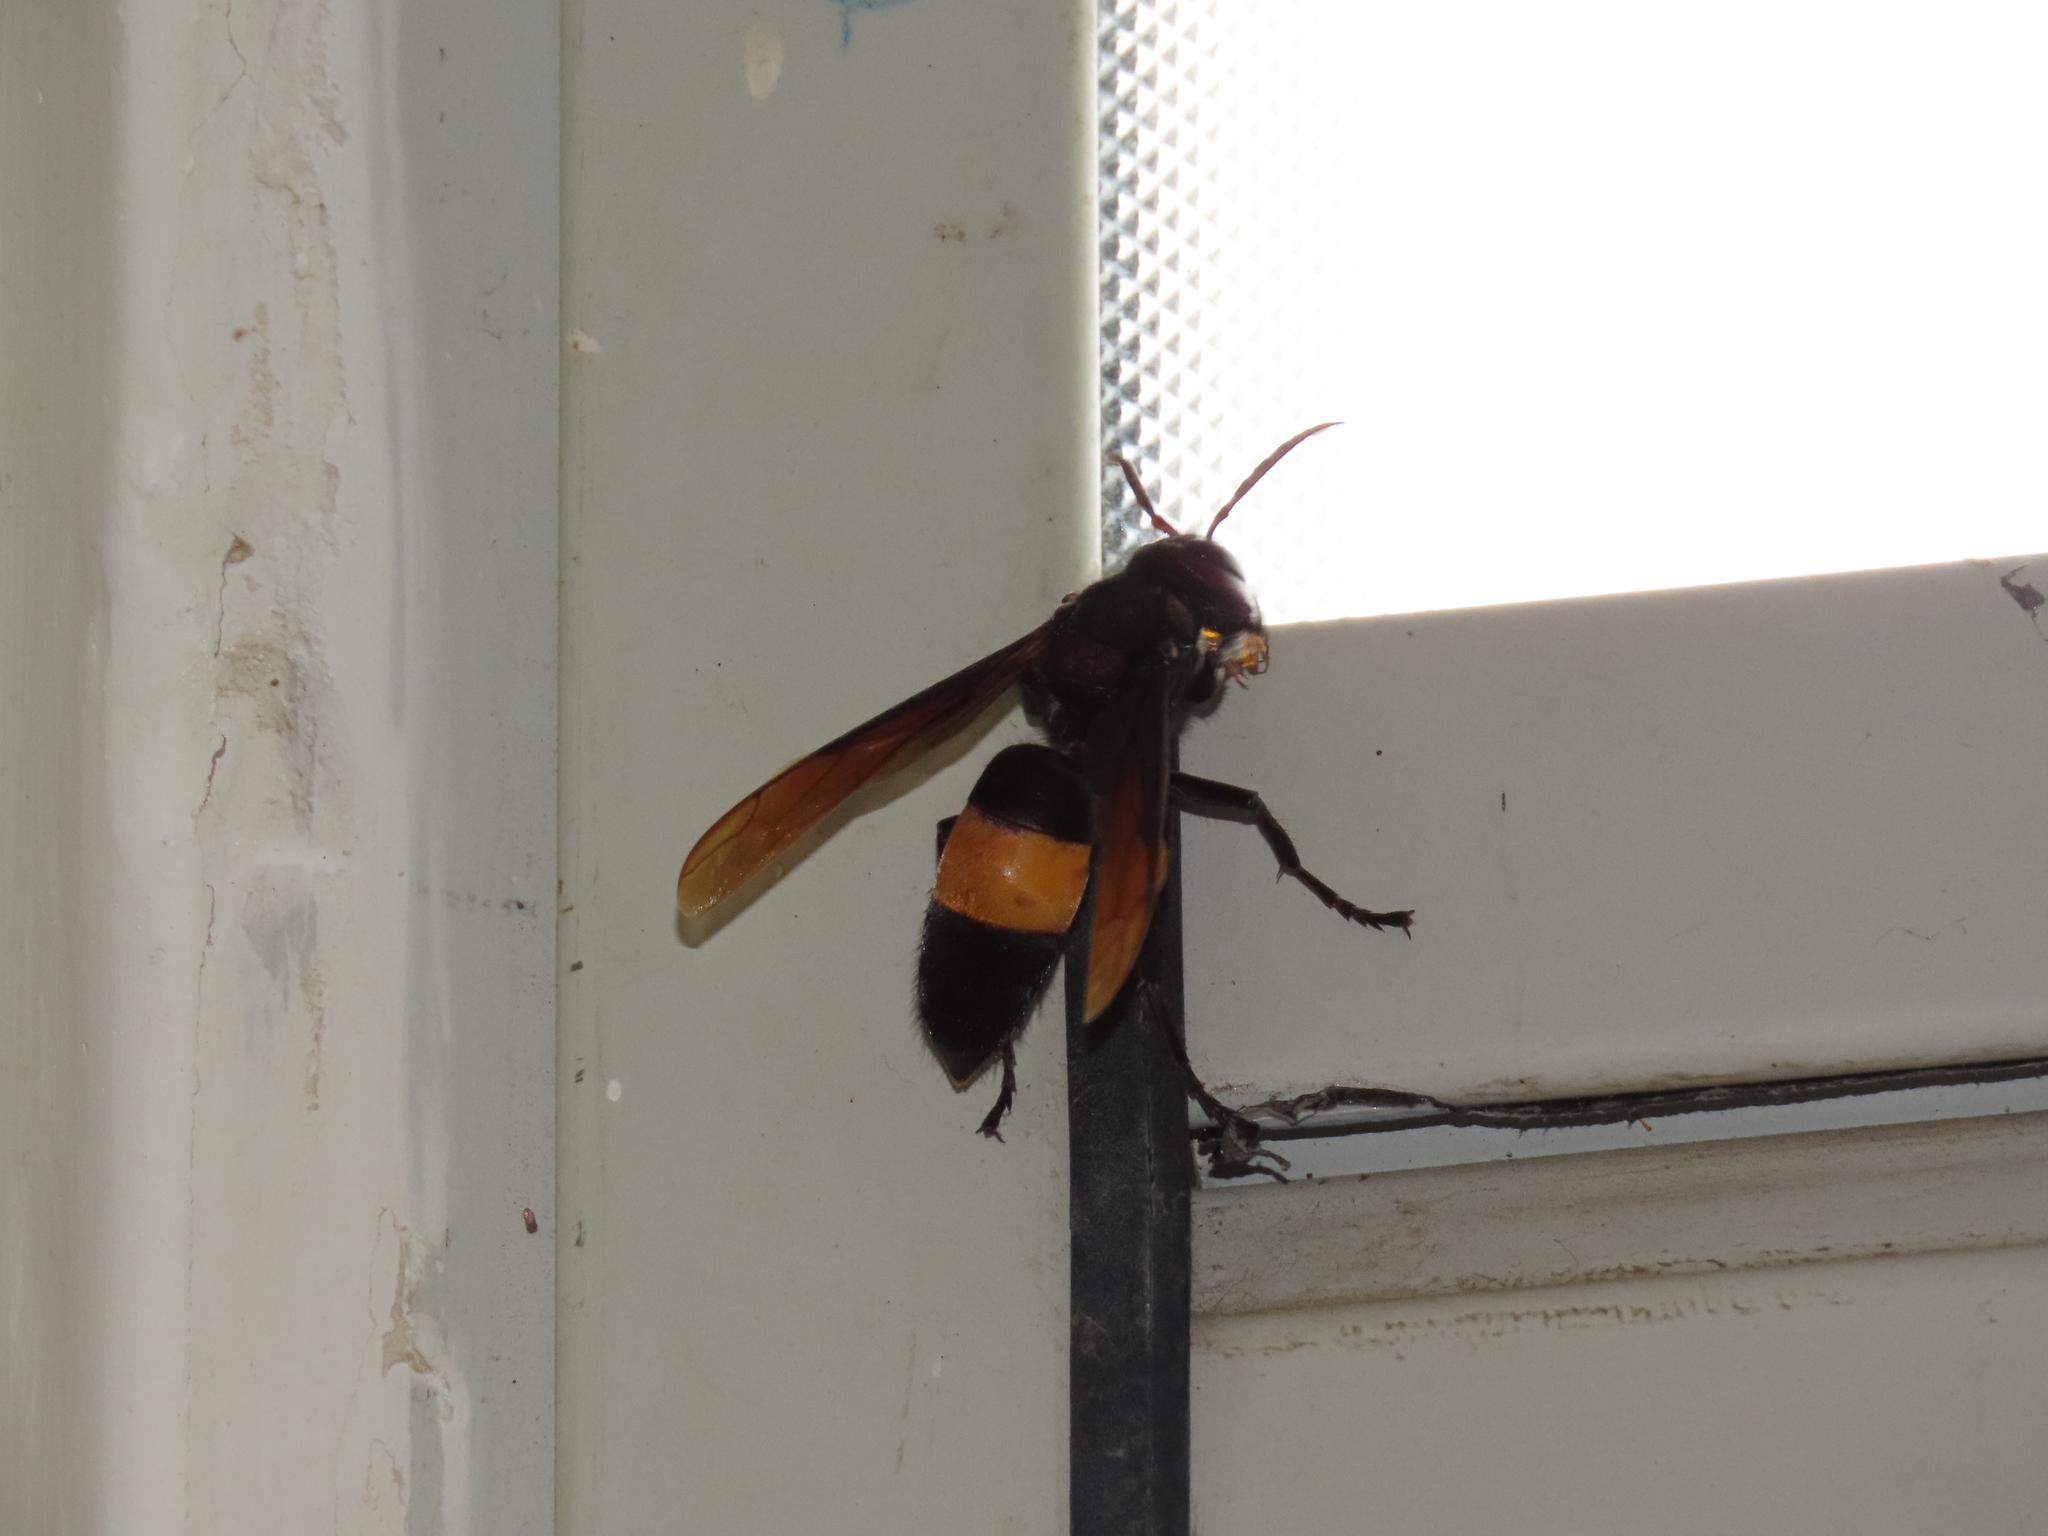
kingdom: Animalia
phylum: Arthropoda
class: Insecta
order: Hymenoptera
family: Vespidae
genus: Vespa
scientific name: Vespa tropica
